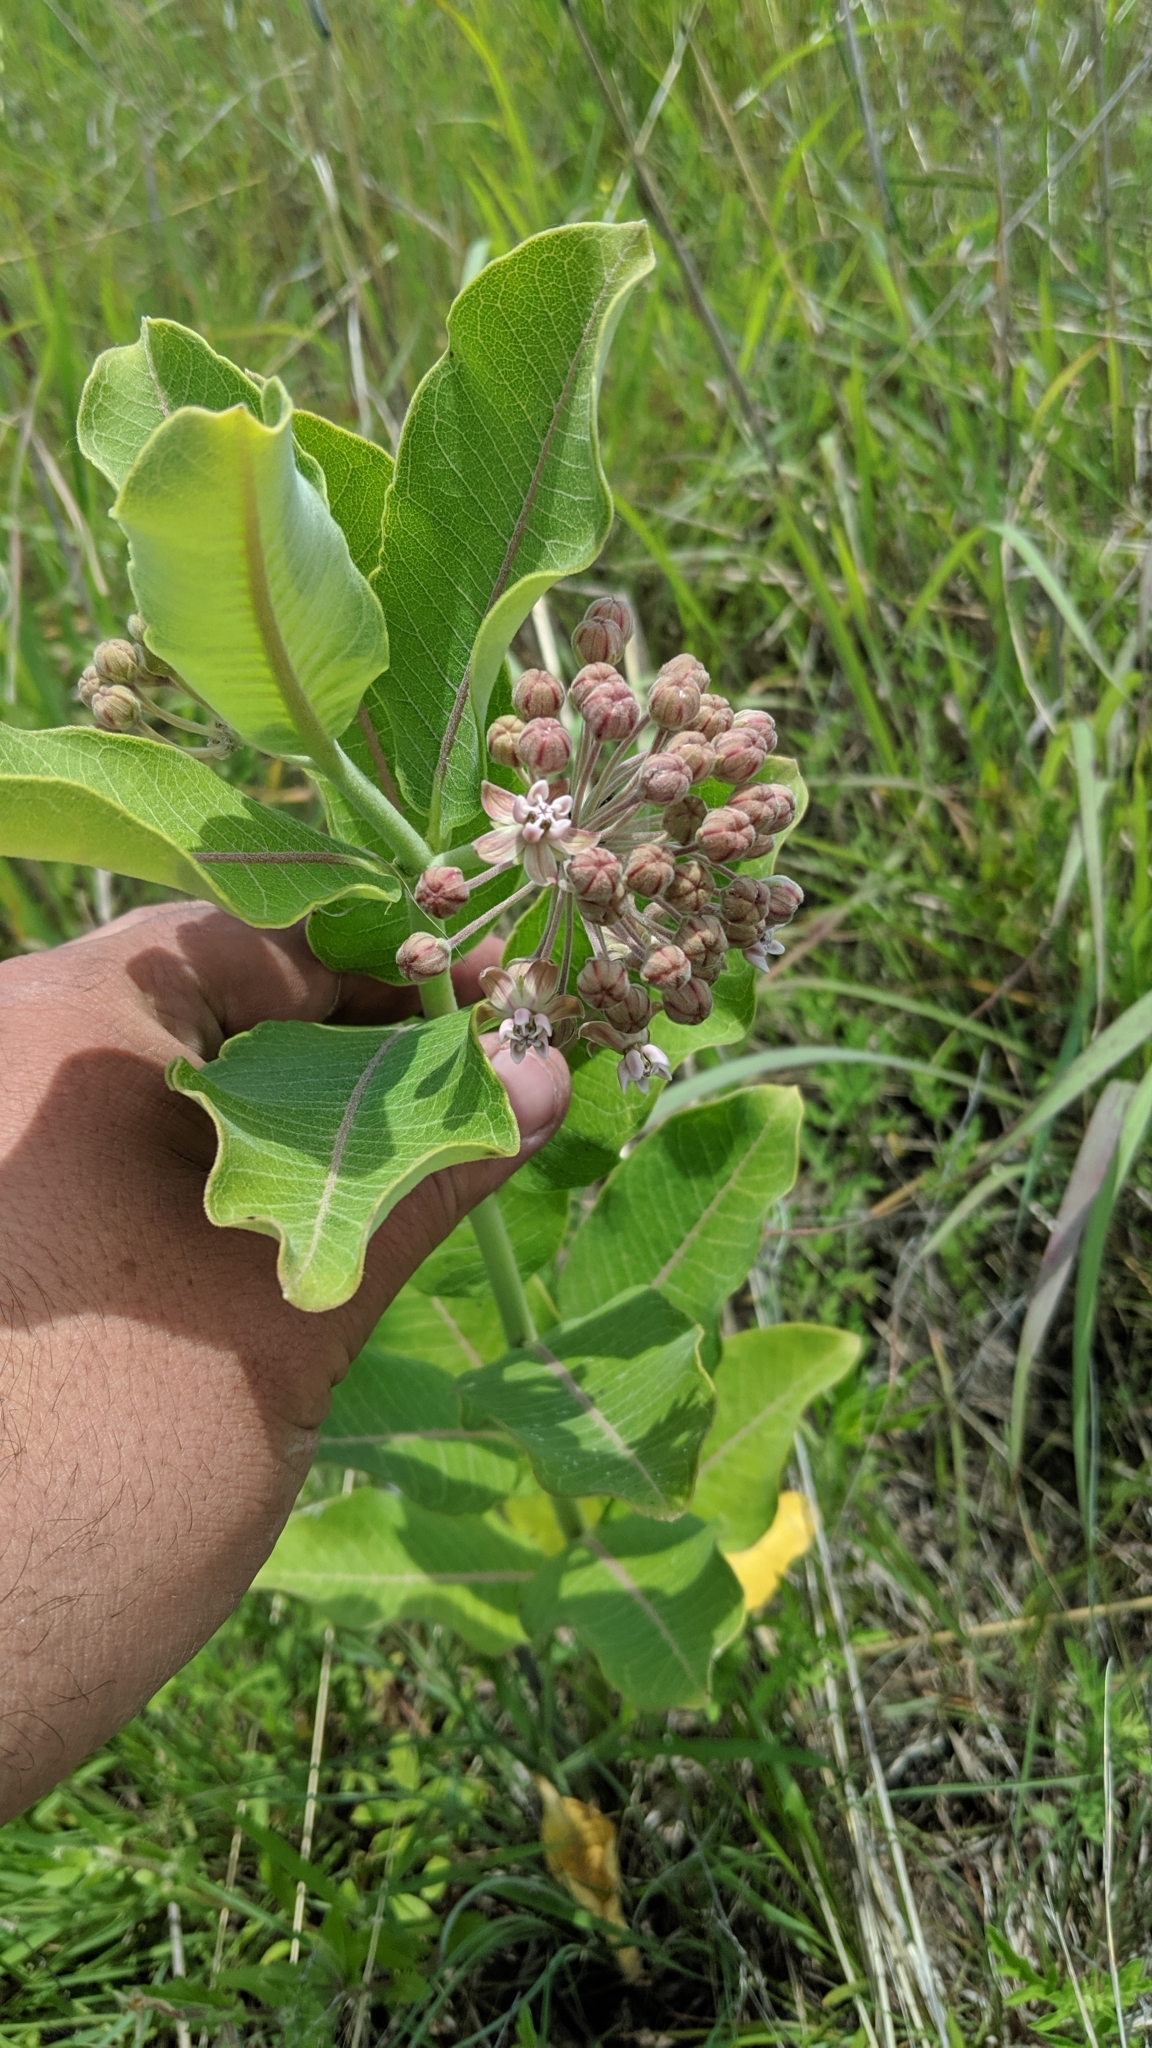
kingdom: Plantae
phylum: Tracheophyta
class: Magnoliopsida
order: Gentianales
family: Apocynaceae
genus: Asclepias
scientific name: Asclepias syriaca
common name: Common milkweed
